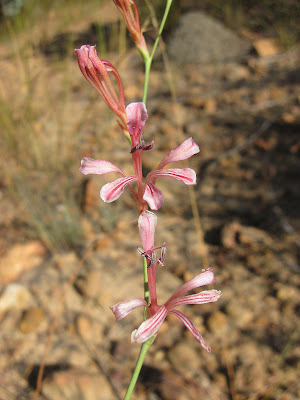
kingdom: Plantae
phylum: Tracheophyta
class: Liliopsida
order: Asparagales
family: Iridaceae
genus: Tritoniopsis
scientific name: Tritoniopsis ramosa
